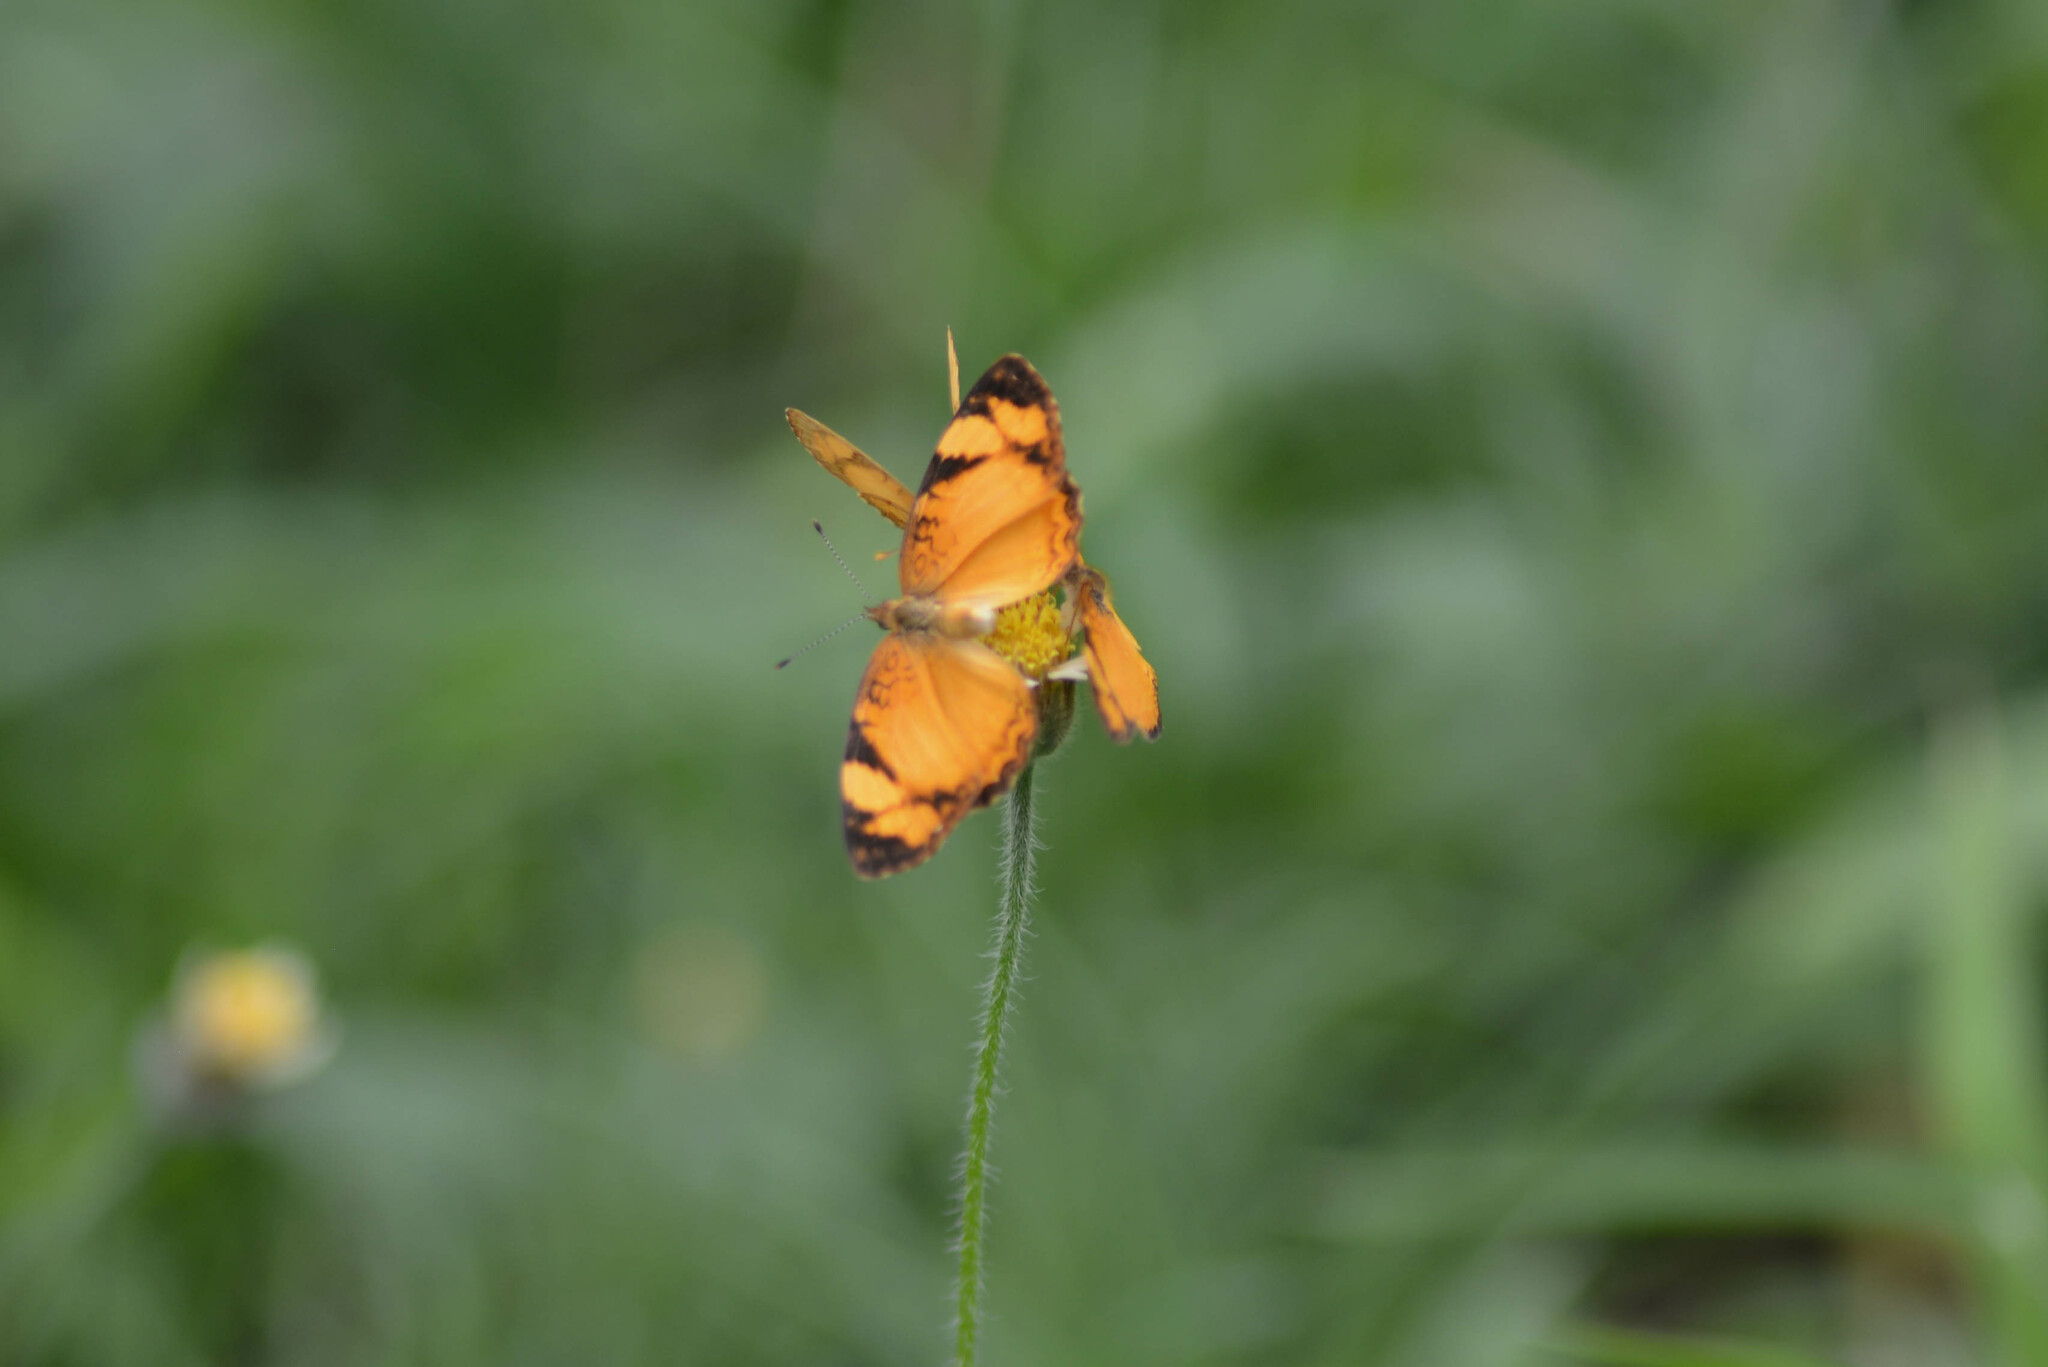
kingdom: Animalia
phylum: Arthropoda
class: Insecta
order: Lepidoptera
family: Nymphalidae
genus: Tegosa
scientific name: Tegosa claudina
